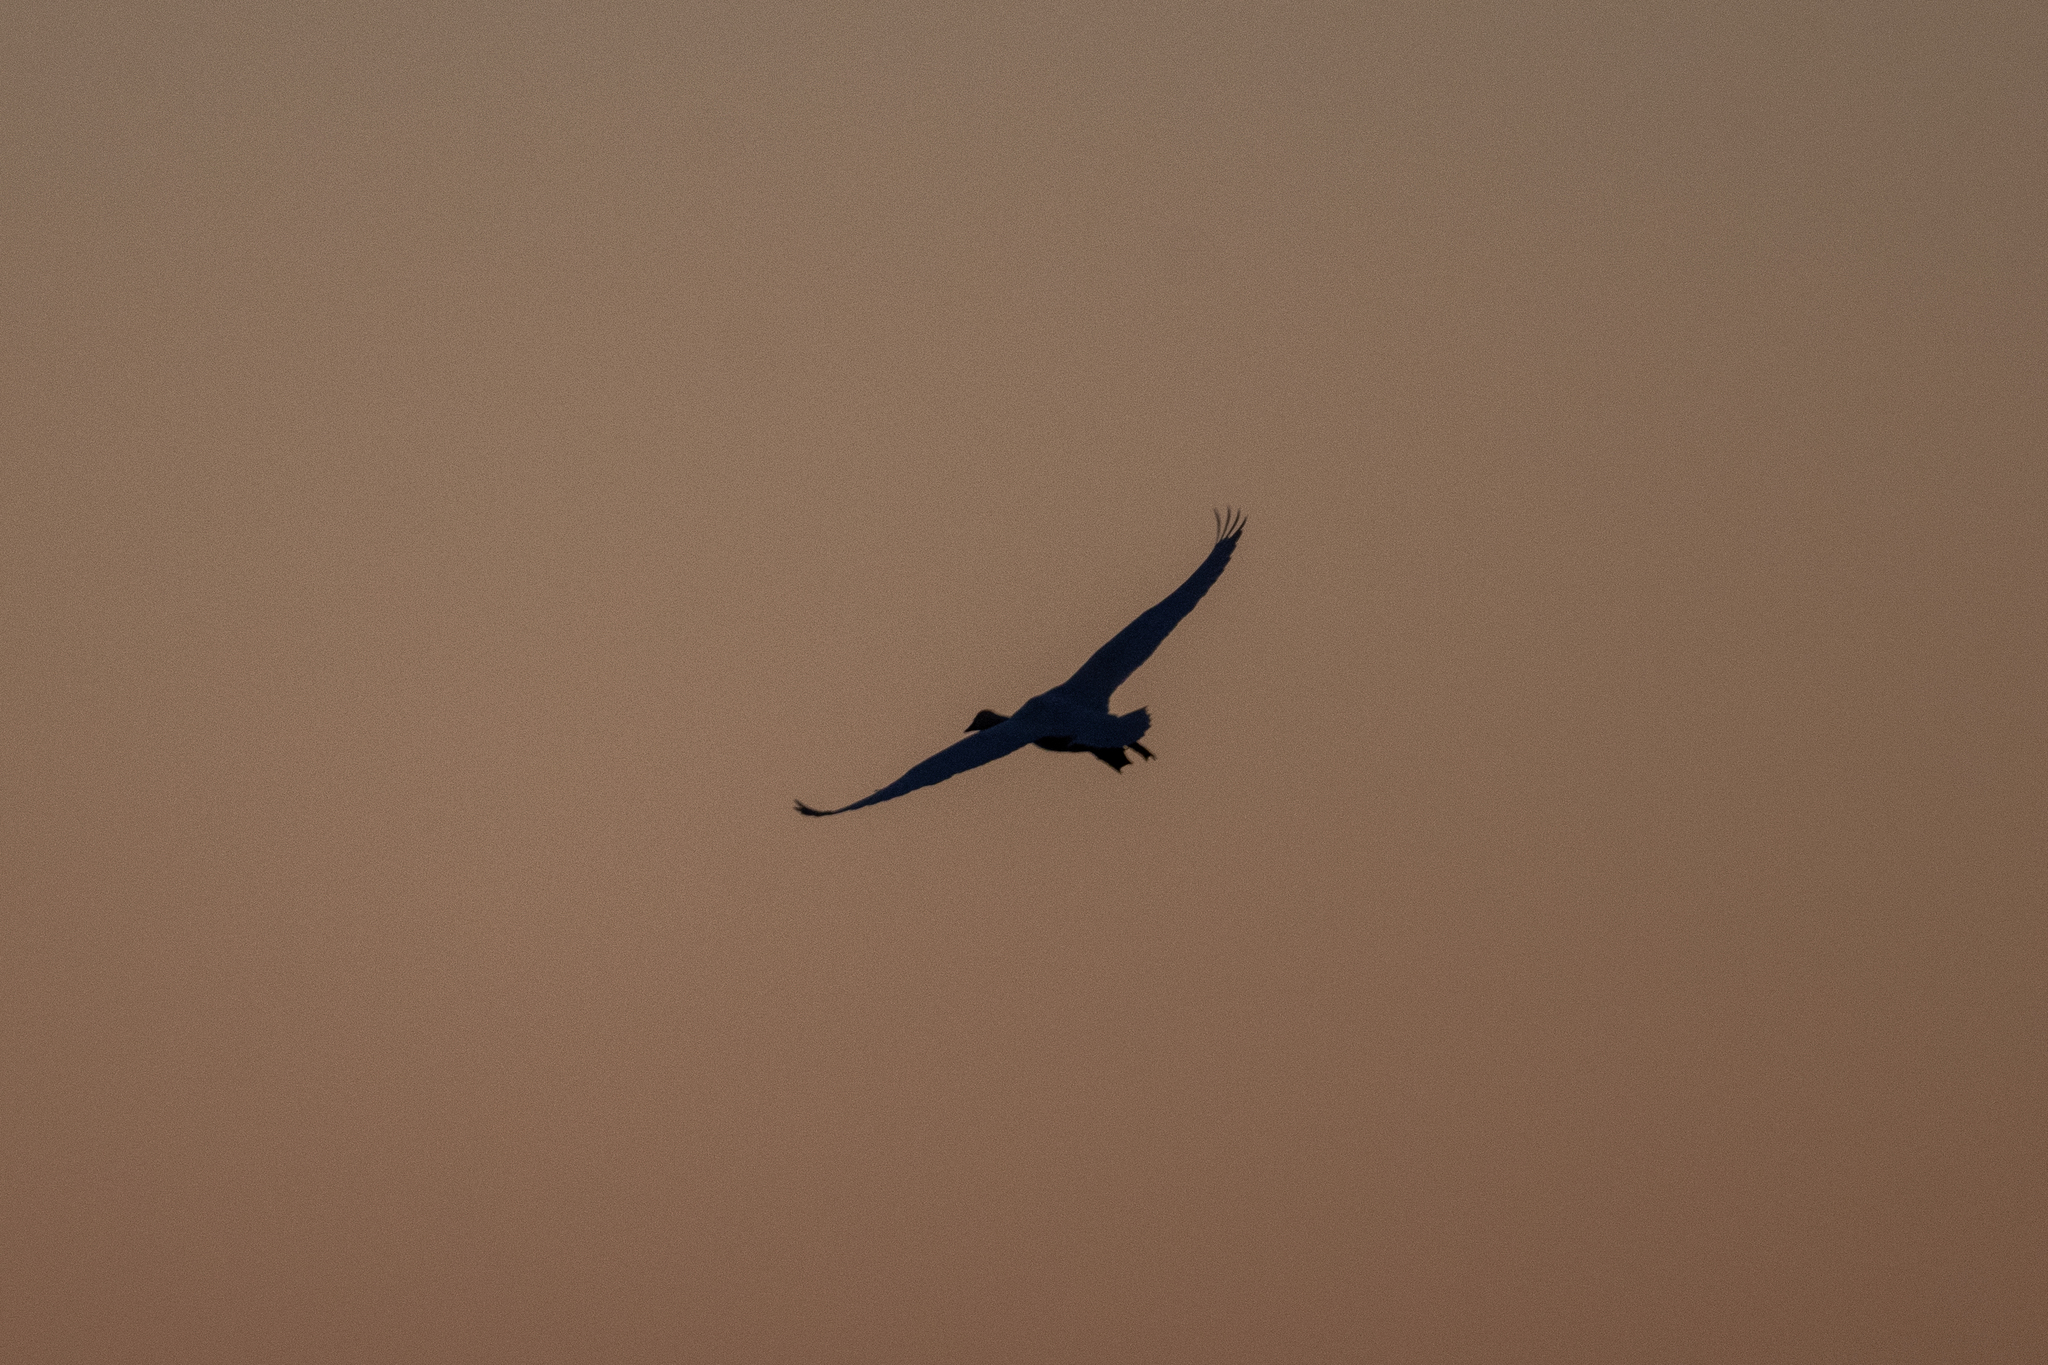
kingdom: Animalia
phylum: Chordata
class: Aves
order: Anseriformes
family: Anatidae
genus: Cygnus
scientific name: Cygnus columbianus
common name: Tundra swan
